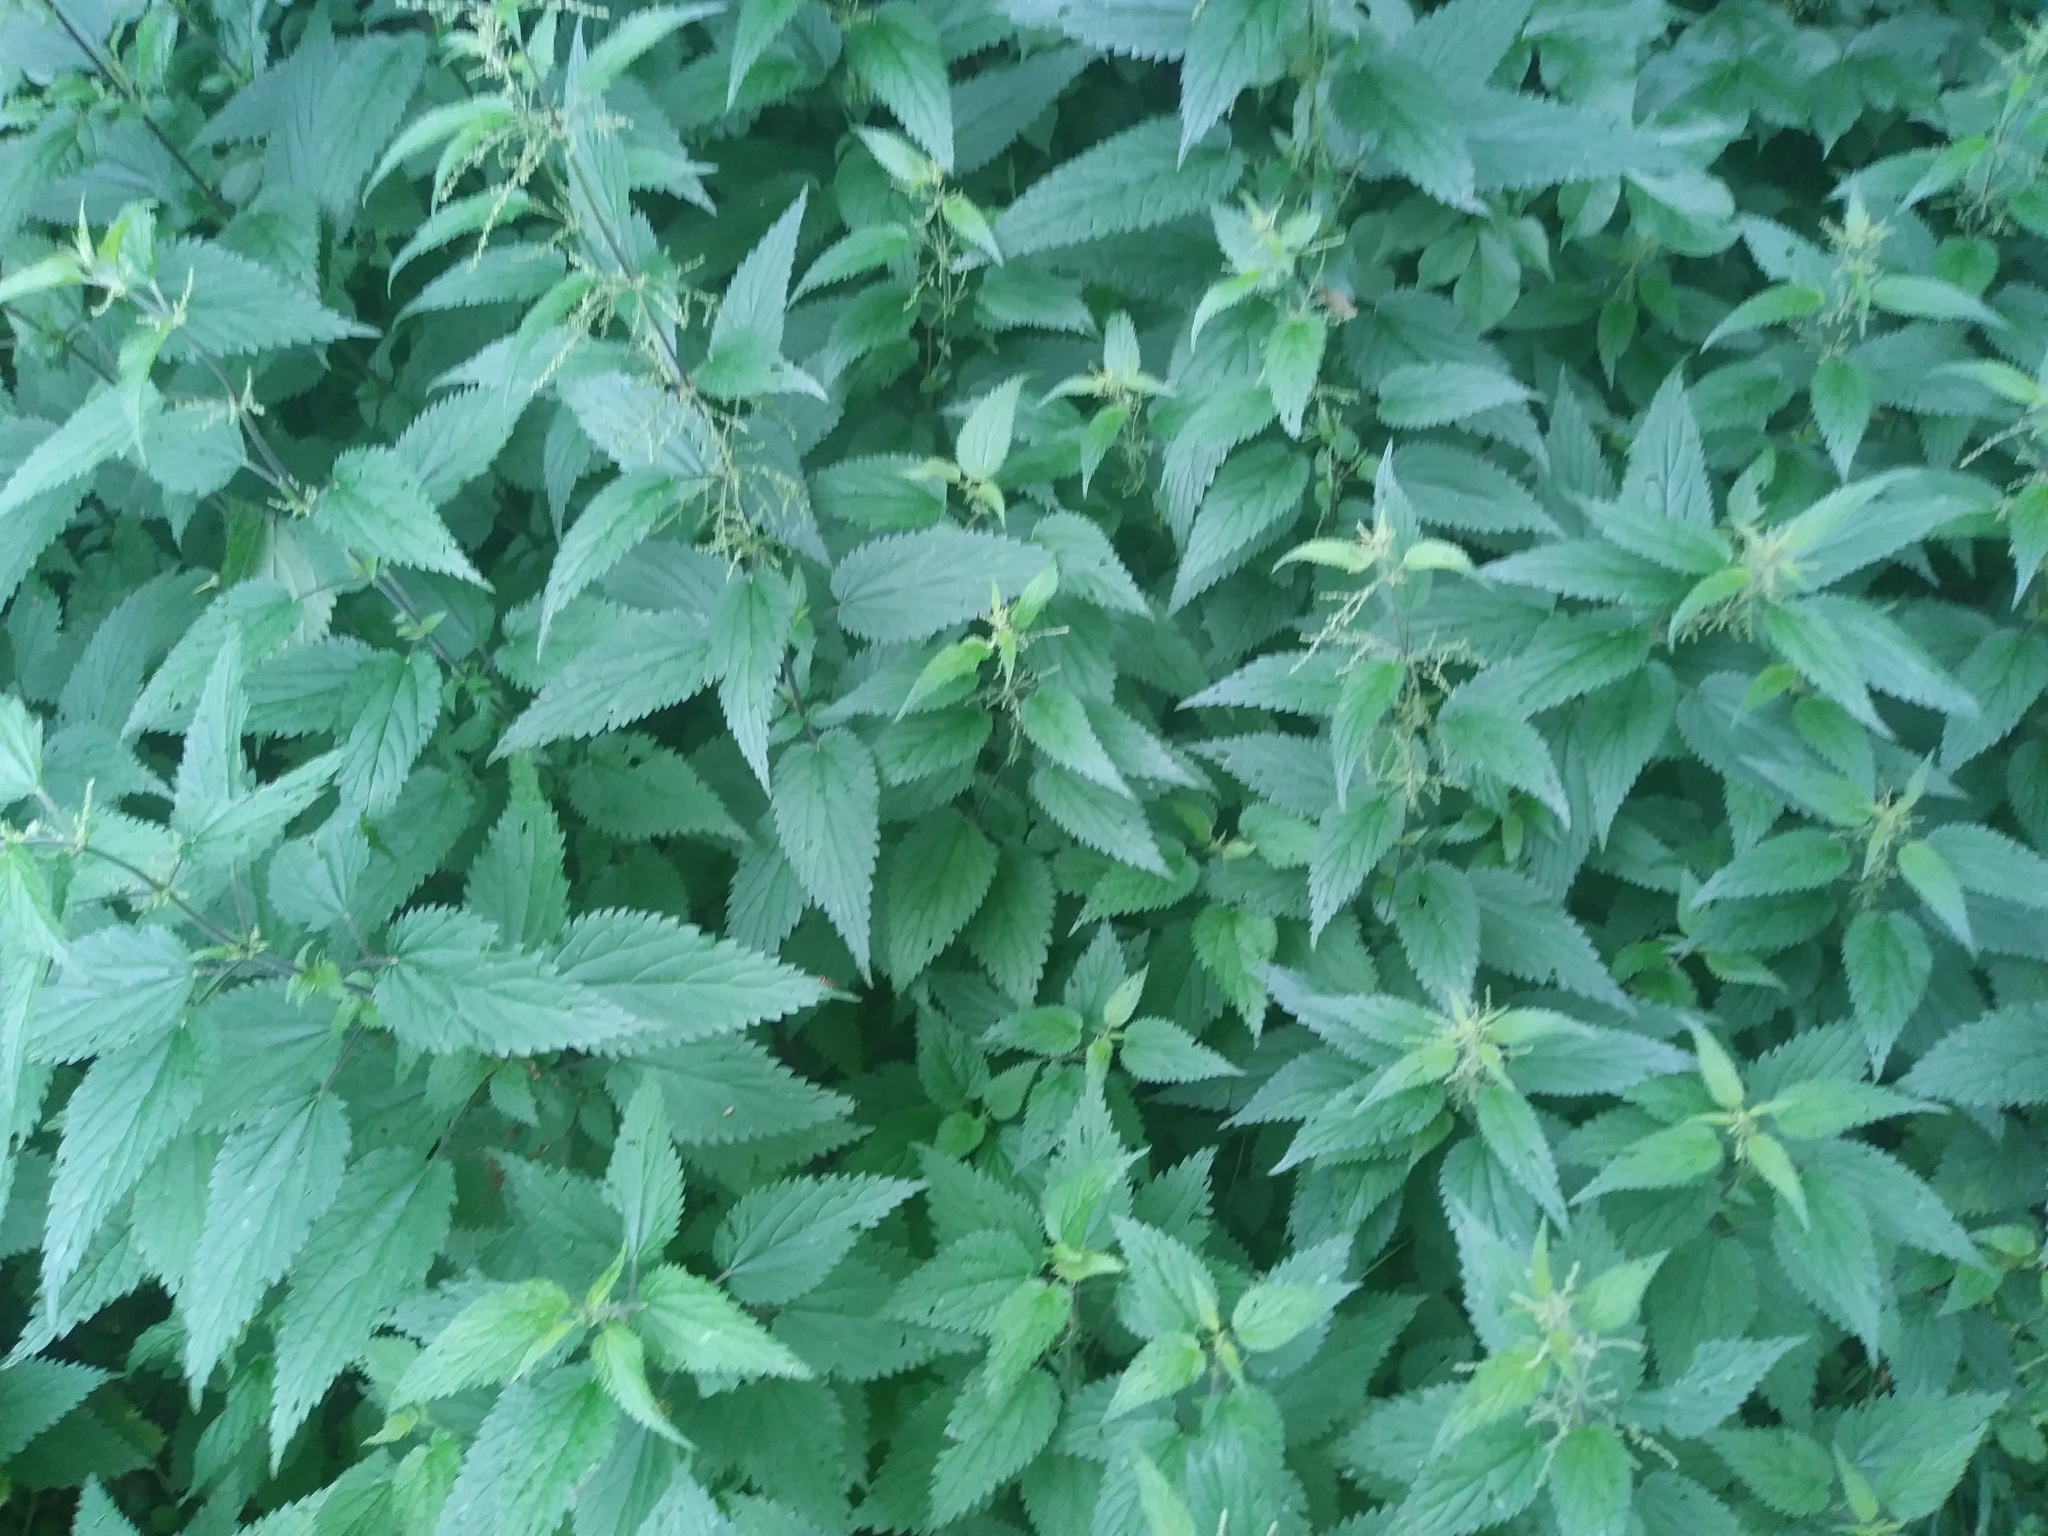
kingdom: Plantae
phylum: Tracheophyta
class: Magnoliopsida
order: Rosales
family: Urticaceae
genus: Urtica
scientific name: Urtica dioica
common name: Common nettle
